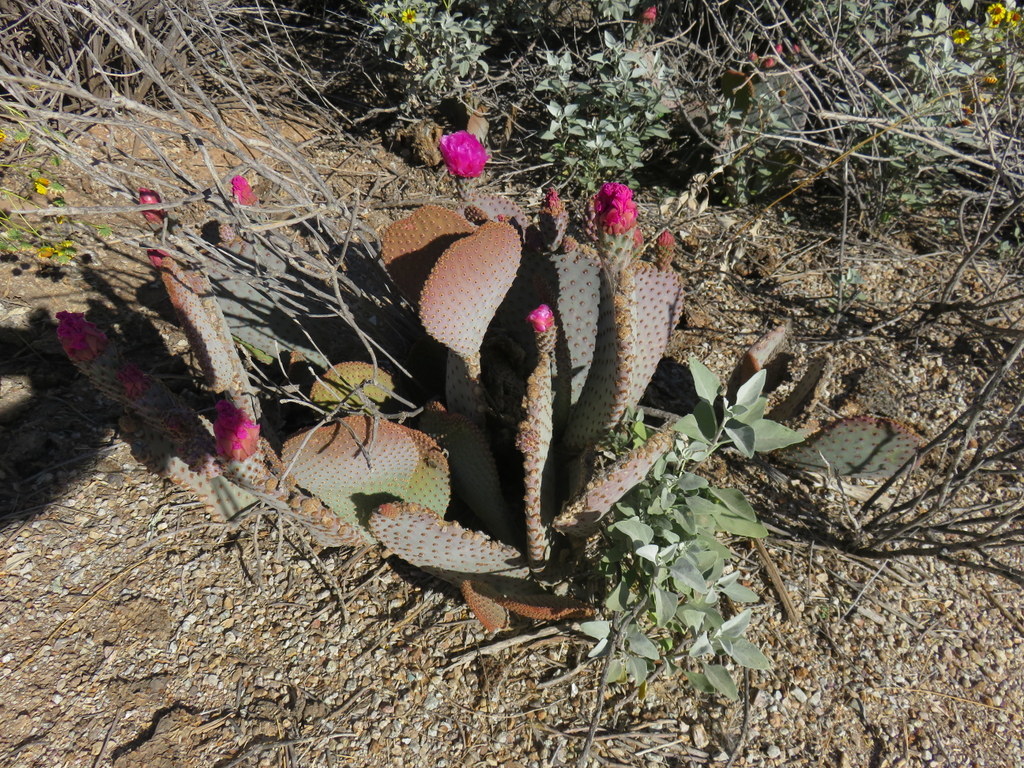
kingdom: Plantae
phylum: Tracheophyta
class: Magnoliopsida
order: Caryophyllales
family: Cactaceae
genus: Opuntia
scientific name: Opuntia basilaris
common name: Beavertail prickly-pear
